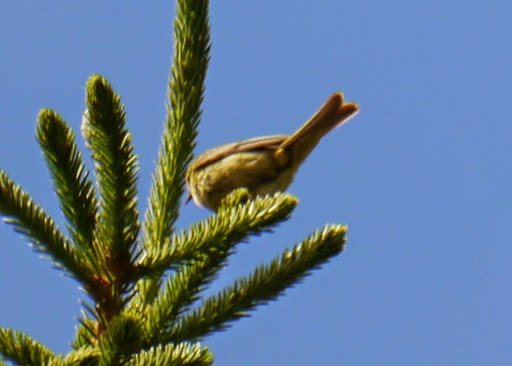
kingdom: Animalia
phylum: Chordata
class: Aves
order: Passeriformes
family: Parulidae
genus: Leiothlypis
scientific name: Leiothlypis celata
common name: Orange-crowned warbler
